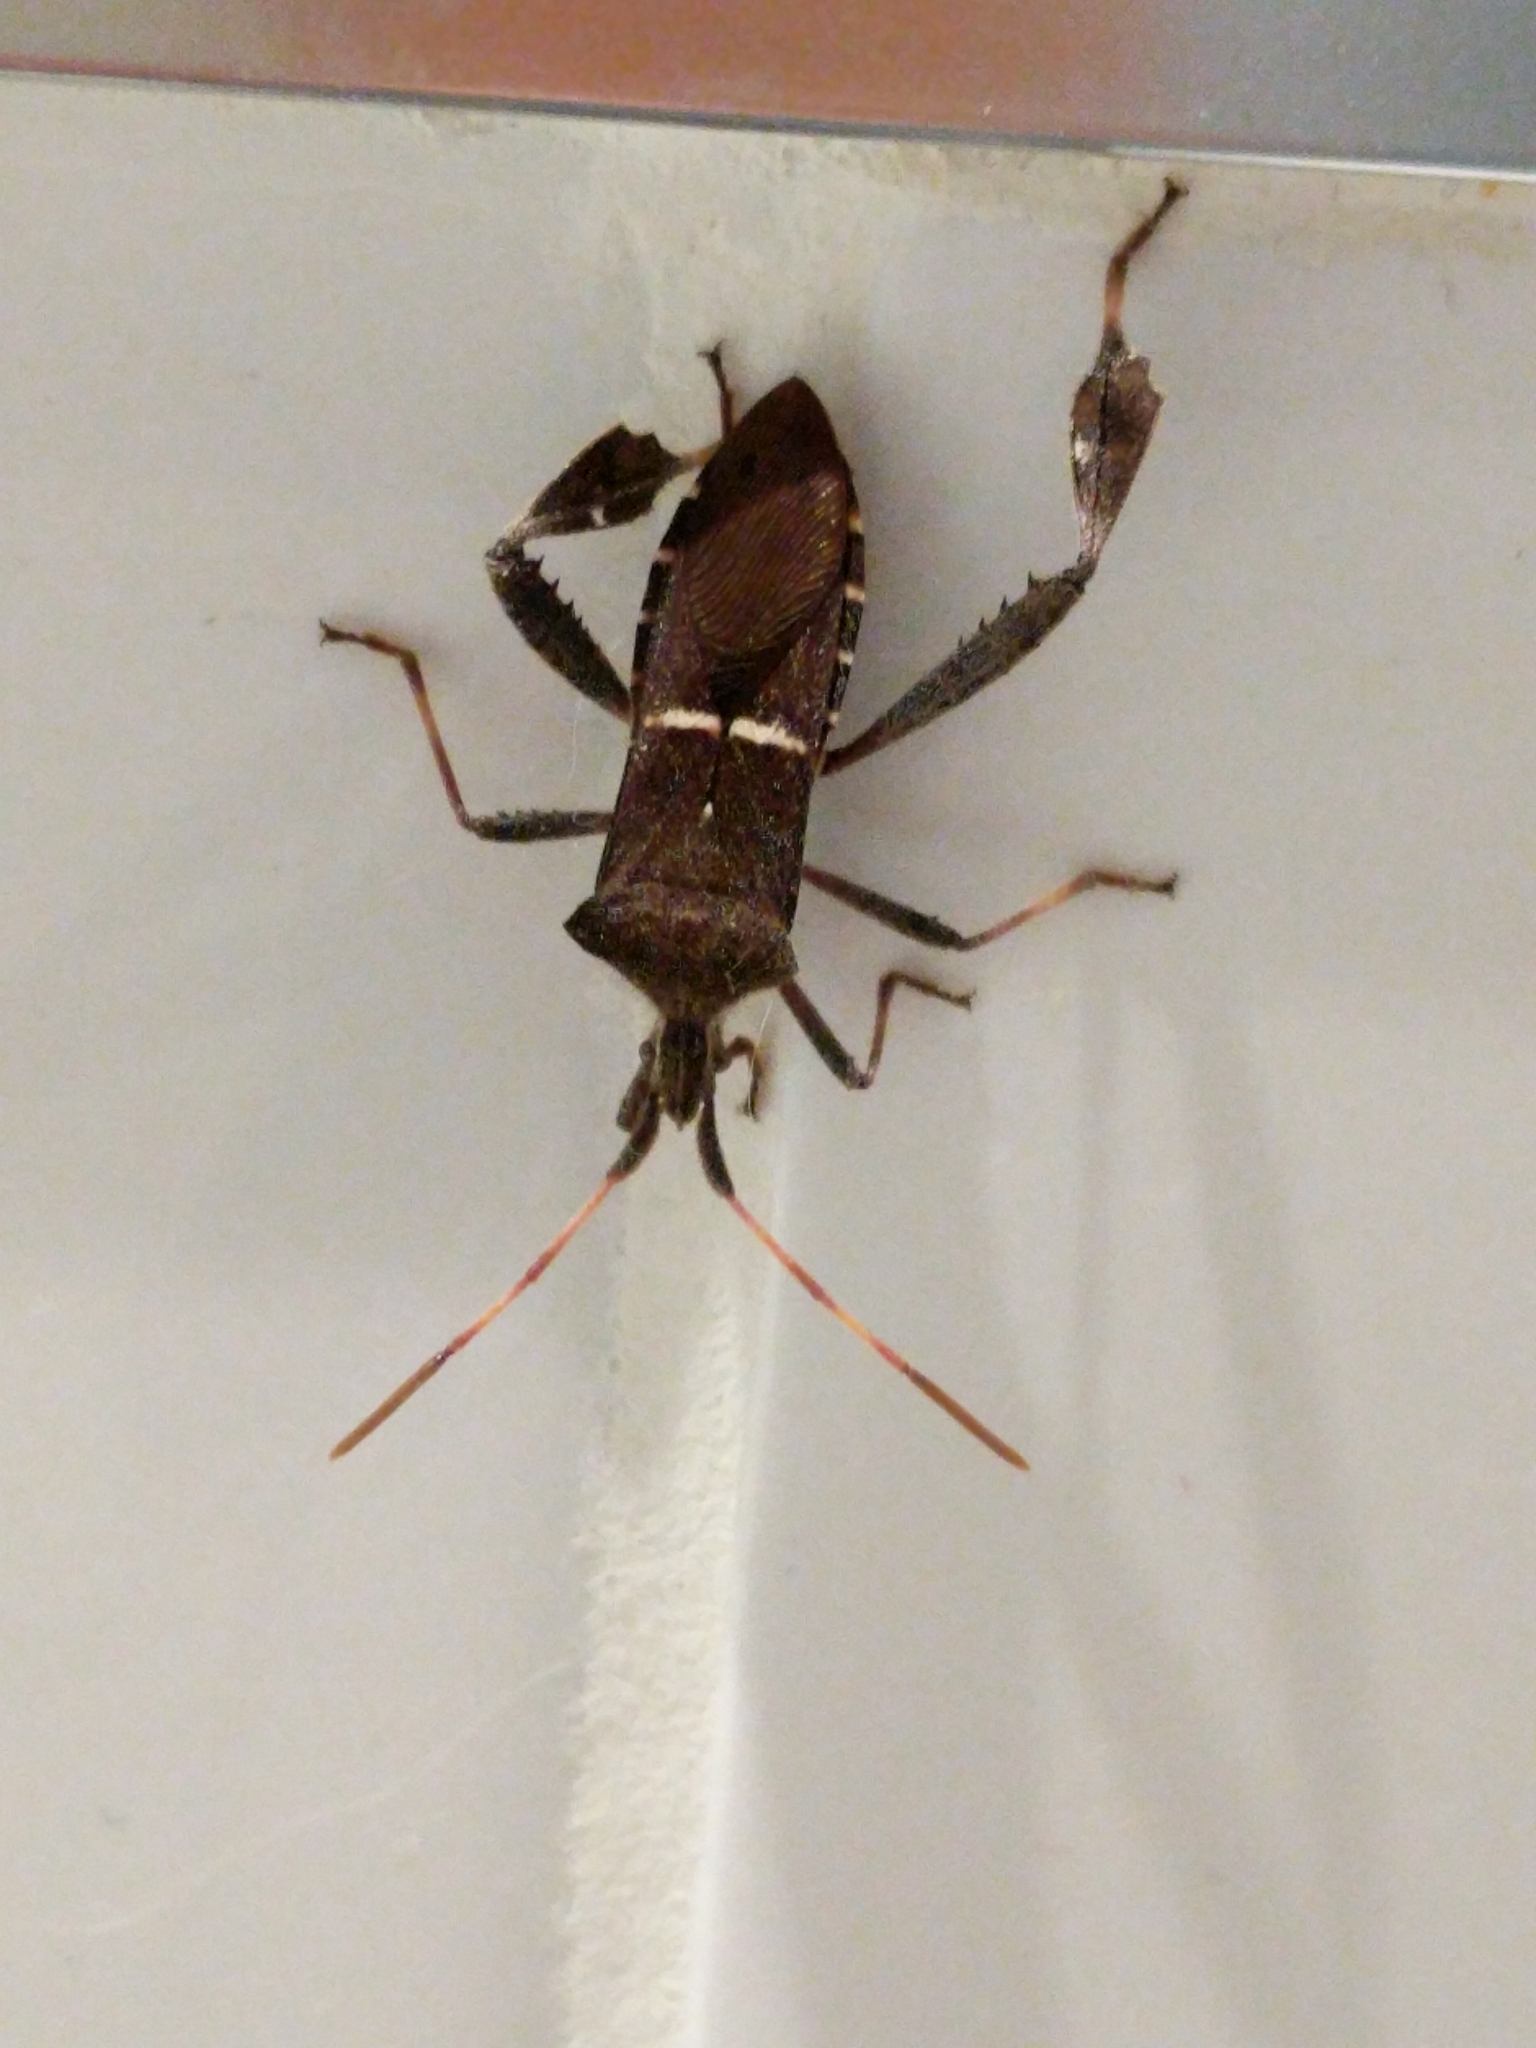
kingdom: Animalia
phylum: Arthropoda
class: Insecta
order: Hemiptera
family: Coreidae
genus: Leptoglossus
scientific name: Leptoglossus phyllopus
